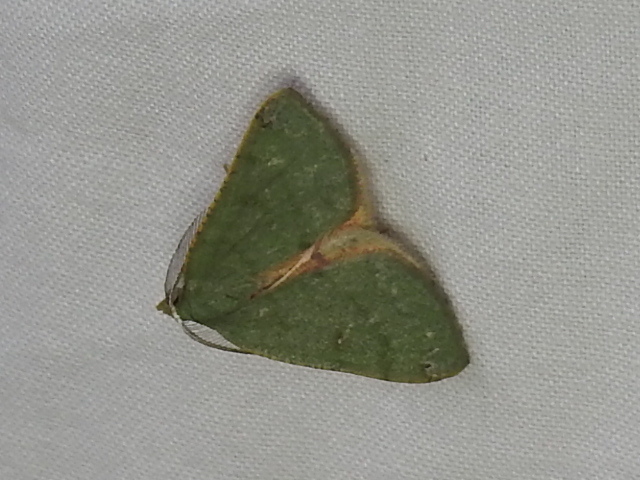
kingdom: Animalia
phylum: Arthropoda
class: Insecta
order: Lepidoptera
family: Geometridae
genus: Chloraspilates
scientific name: Chloraspilates bicoloraria
